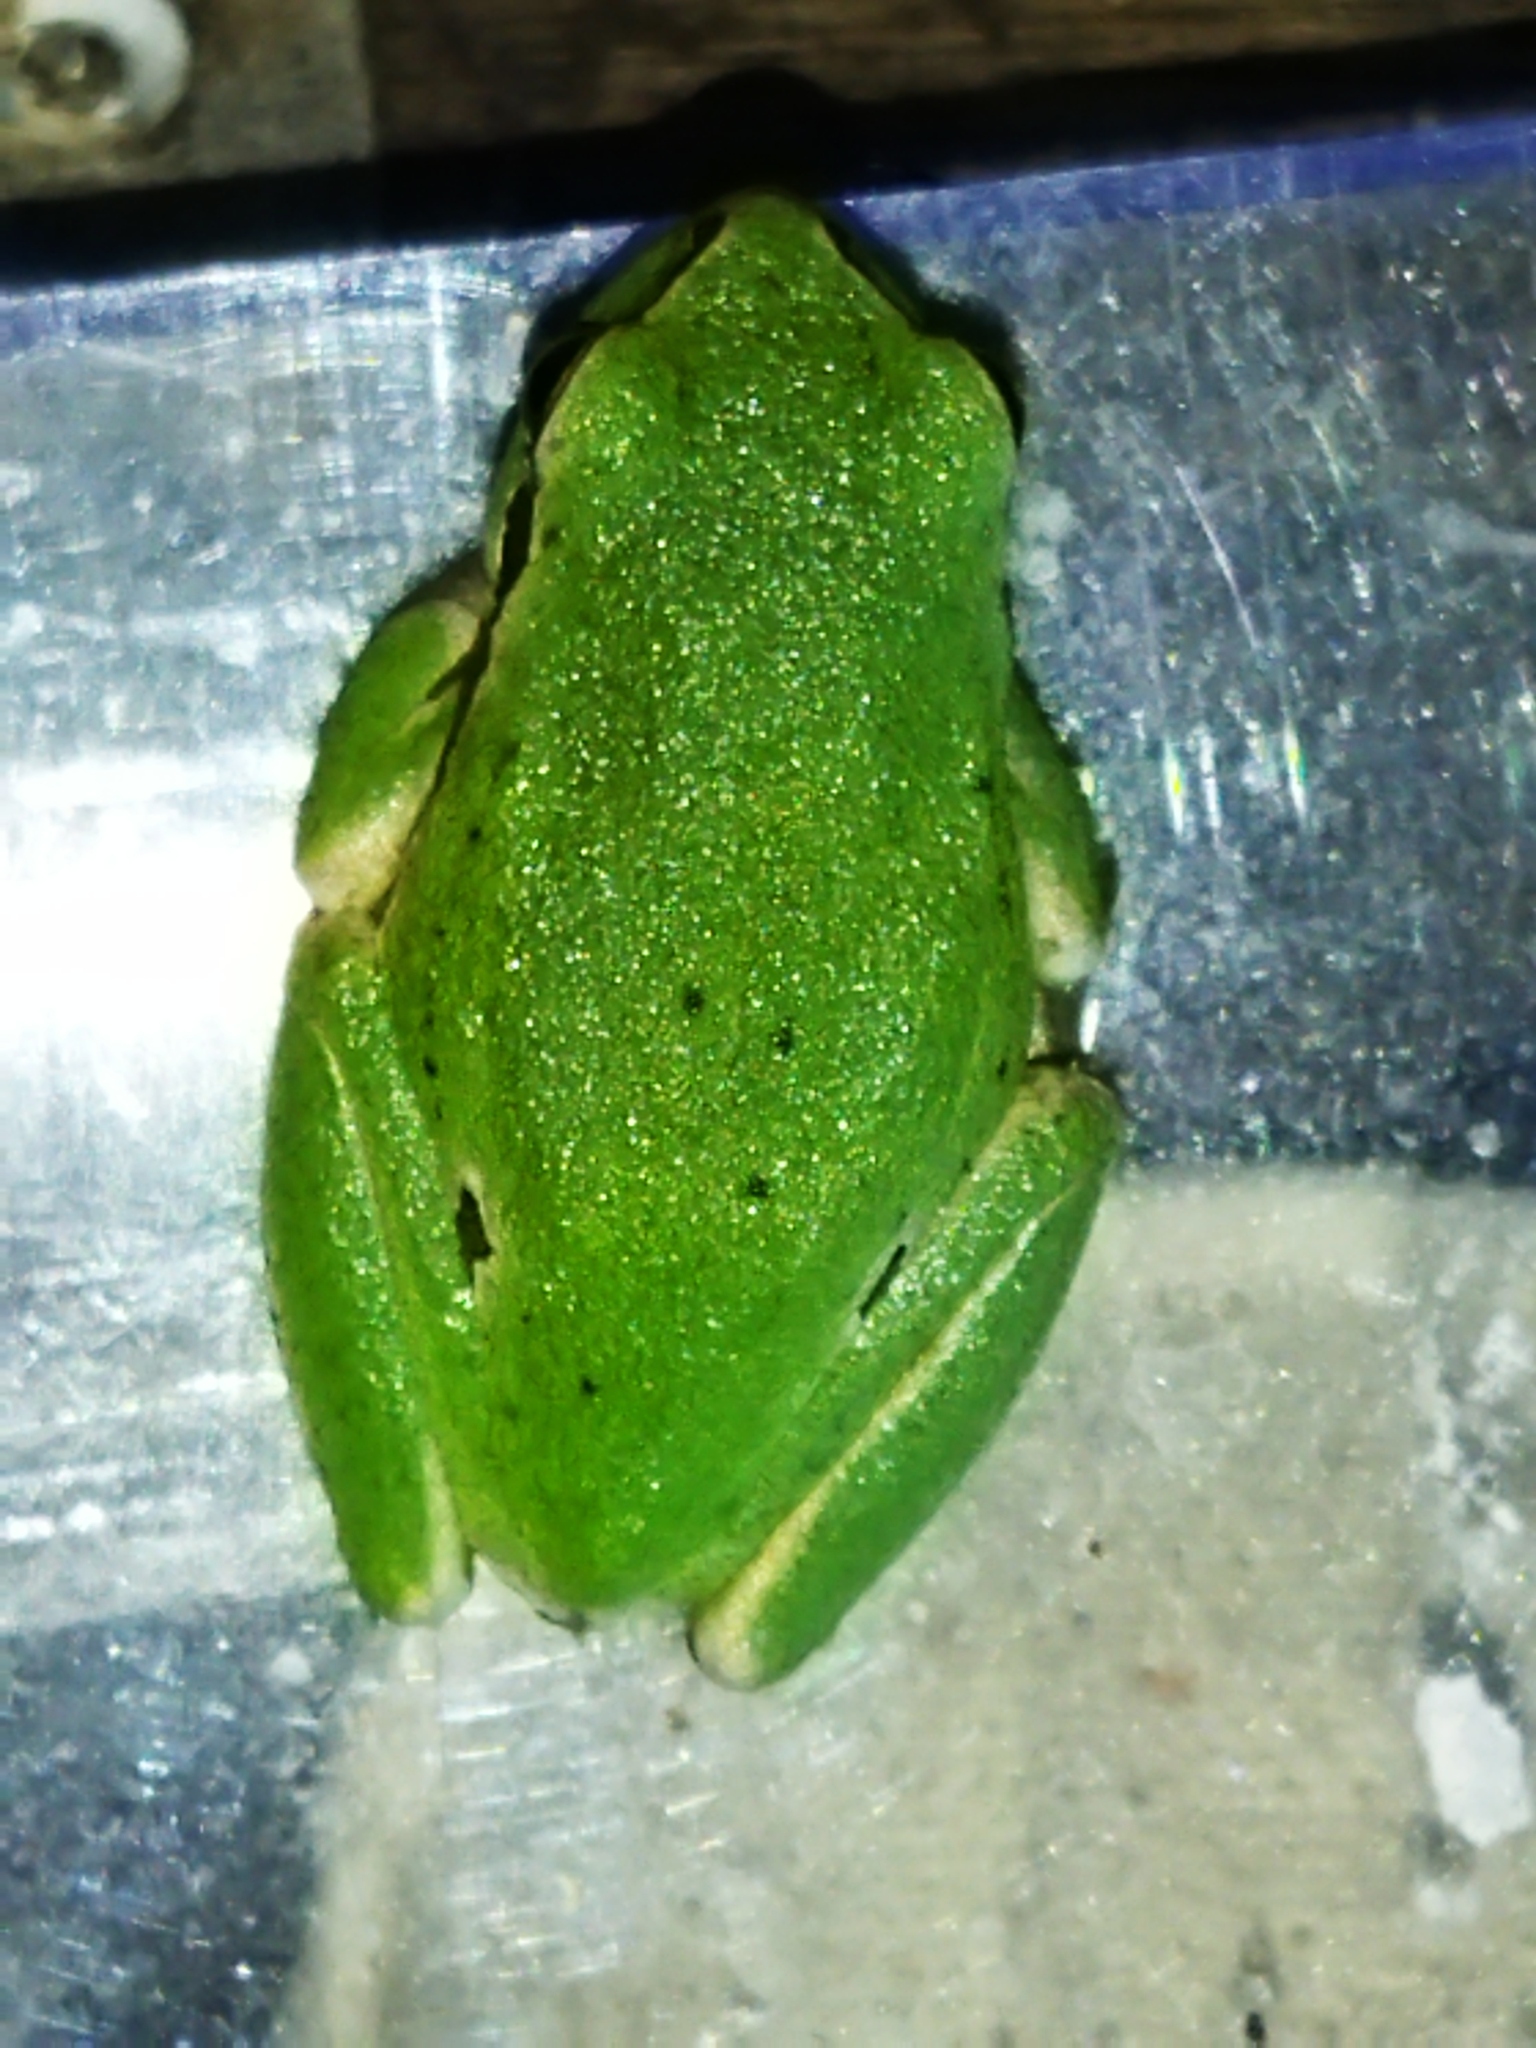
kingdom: Animalia
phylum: Chordata
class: Amphibia
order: Anura
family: Hylidae
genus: Hyla
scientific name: Hyla orientalis
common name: Caucasian treefrog
